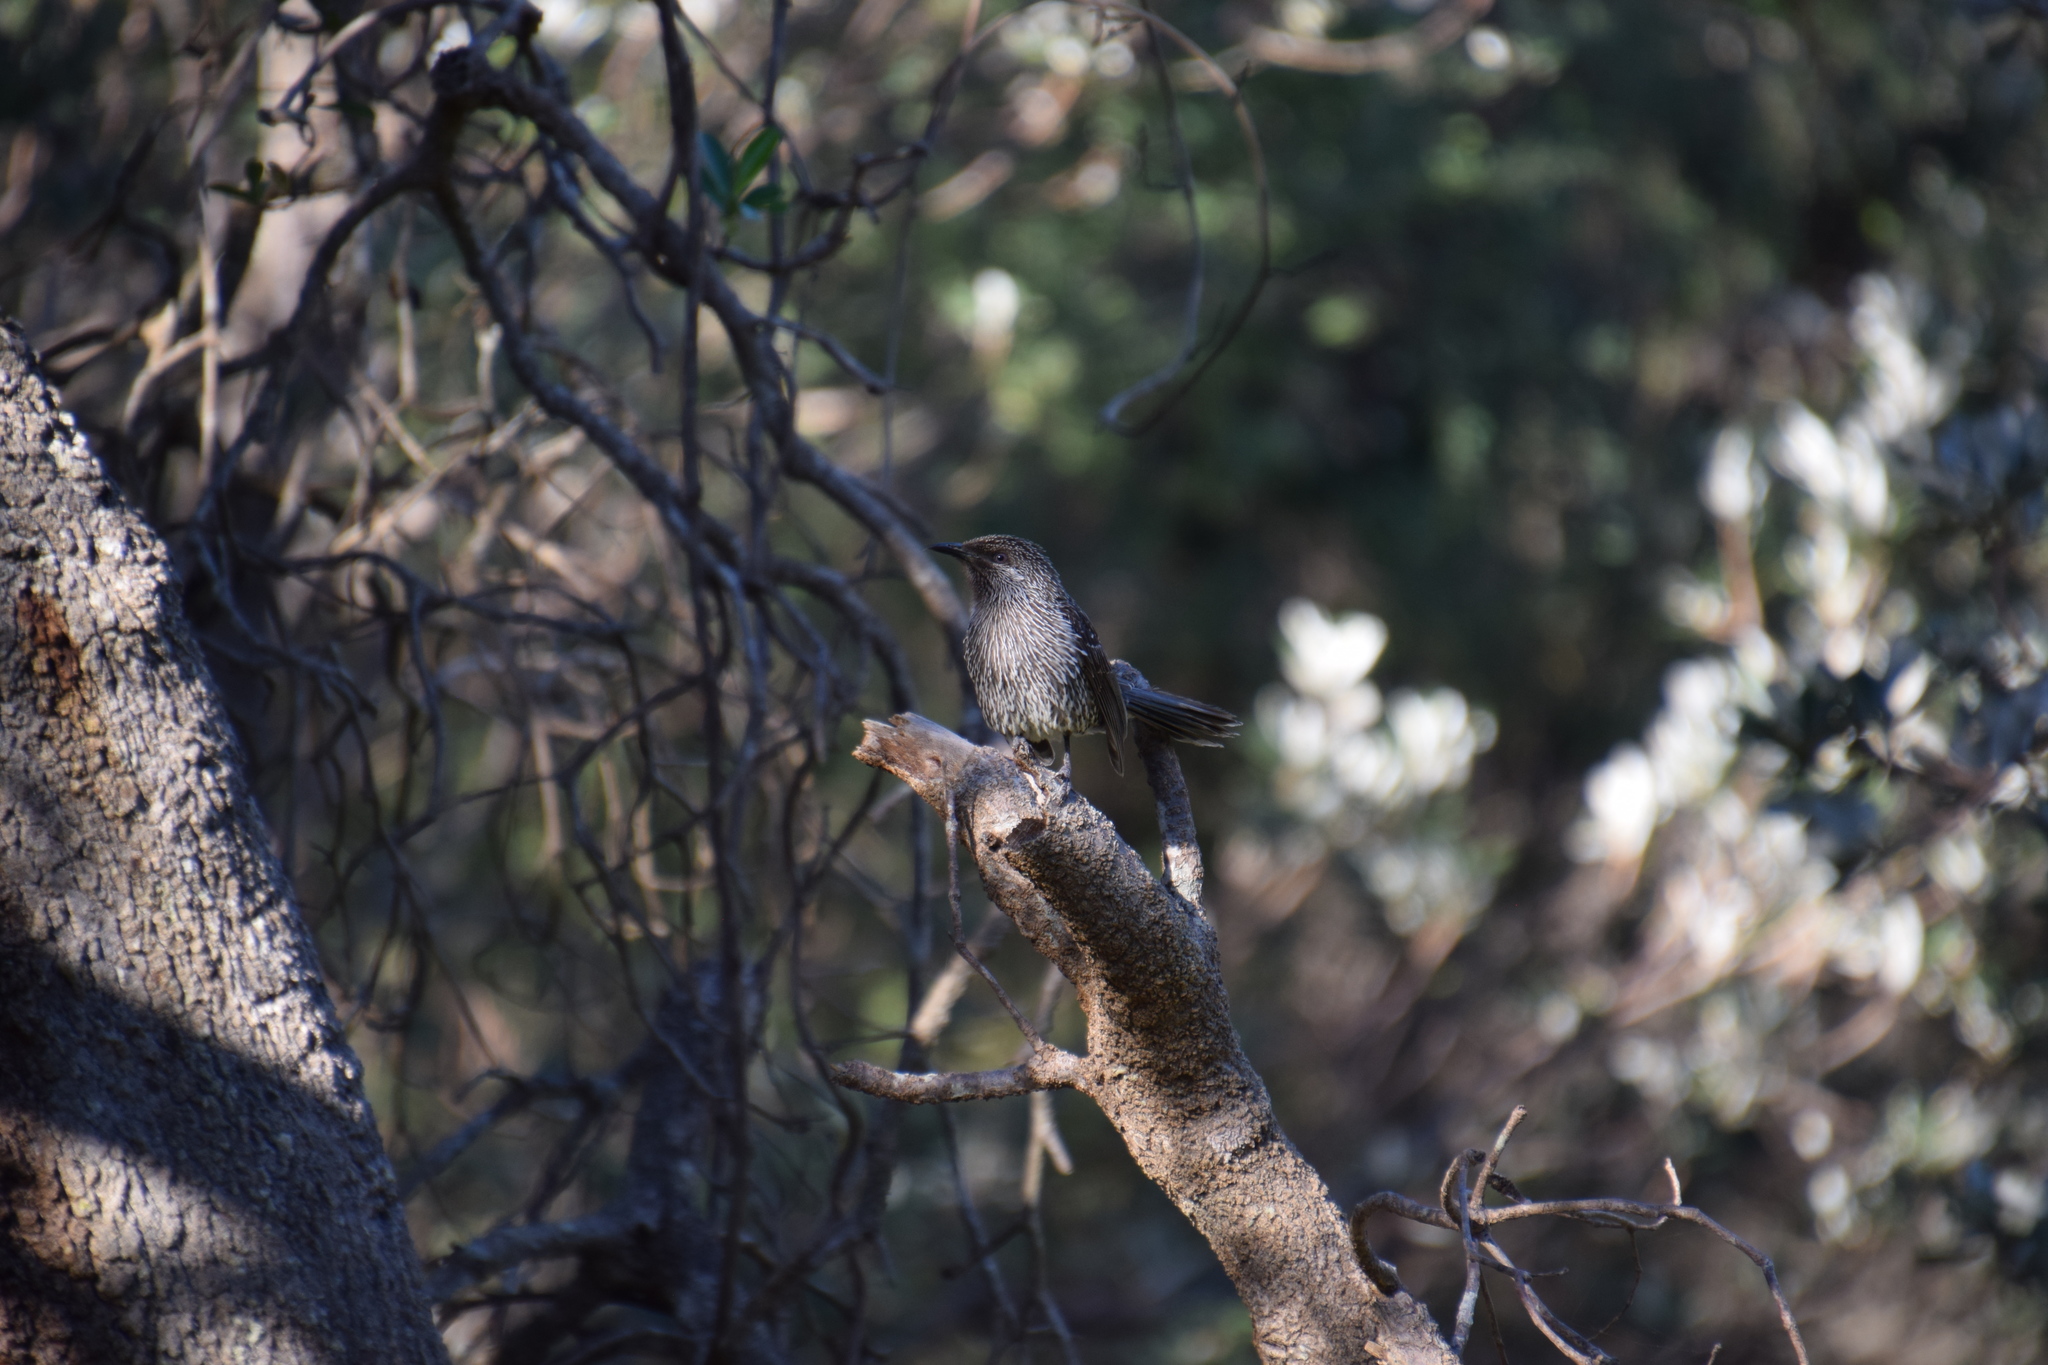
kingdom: Animalia
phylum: Chordata
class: Aves
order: Passeriformes
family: Meliphagidae
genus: Anthochaera
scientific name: Anthochaera chrysoptera
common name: Little wattlebird
